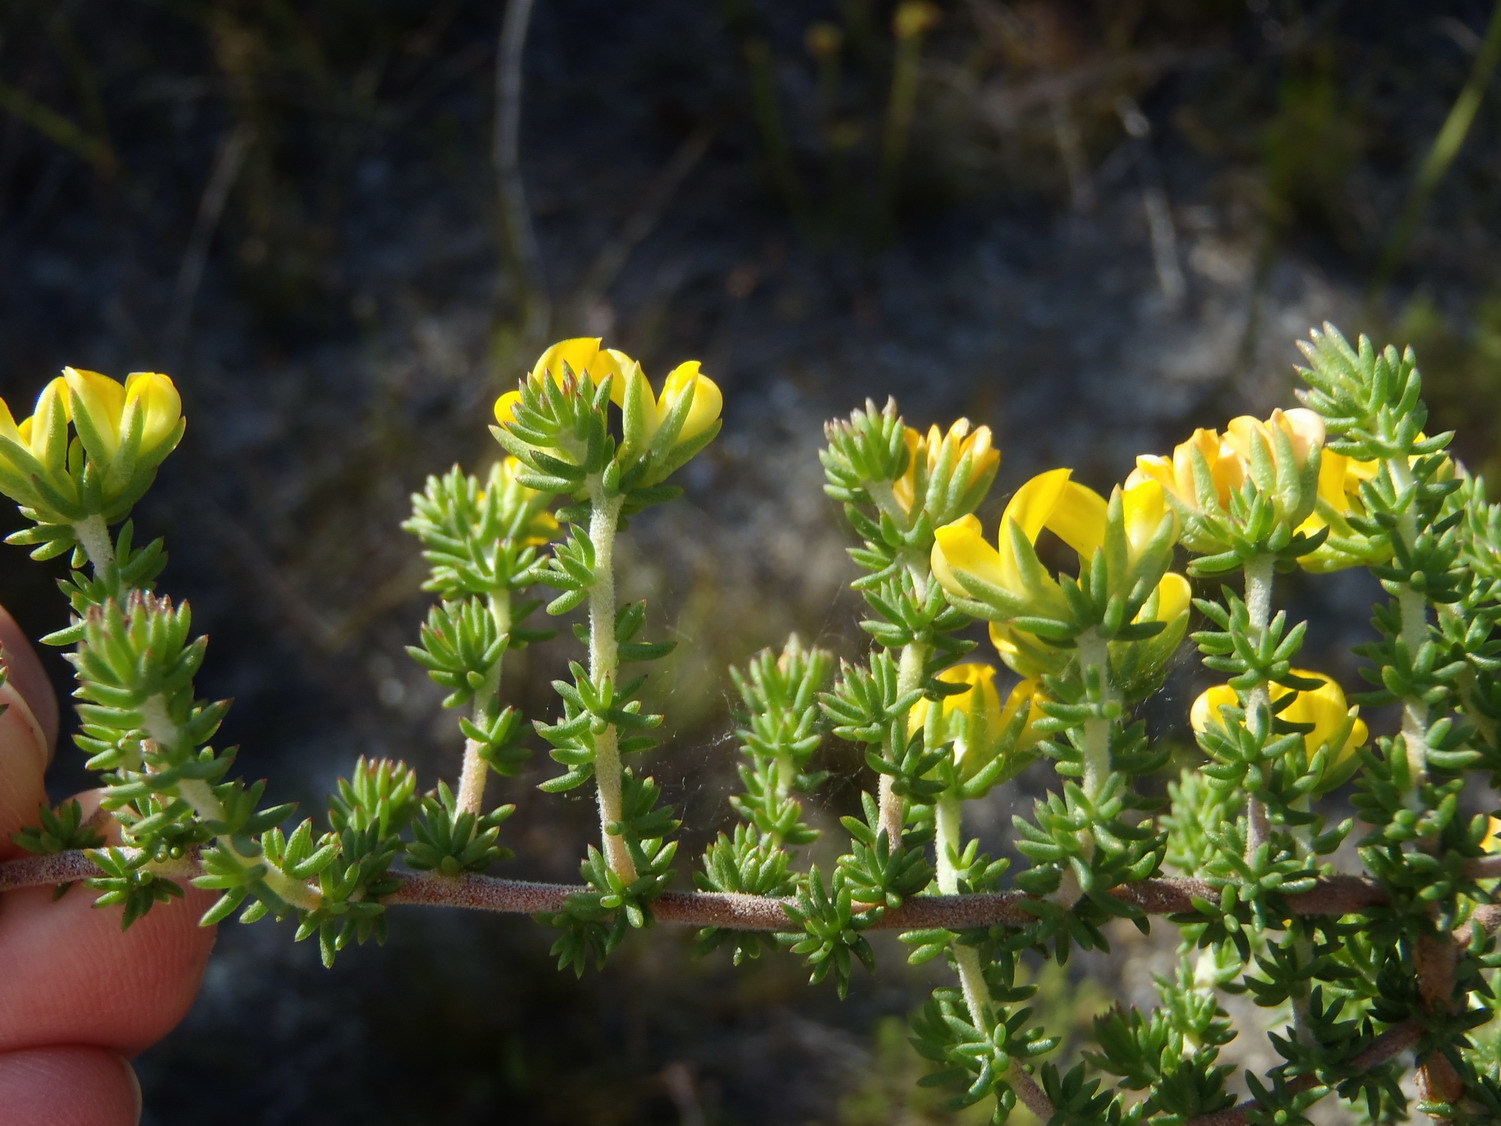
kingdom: Plantae
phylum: Tracheophyta
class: Magnoliopsida
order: Fabales
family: Fabaceae
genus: Aspalathus
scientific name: Aspalathus juniperina
